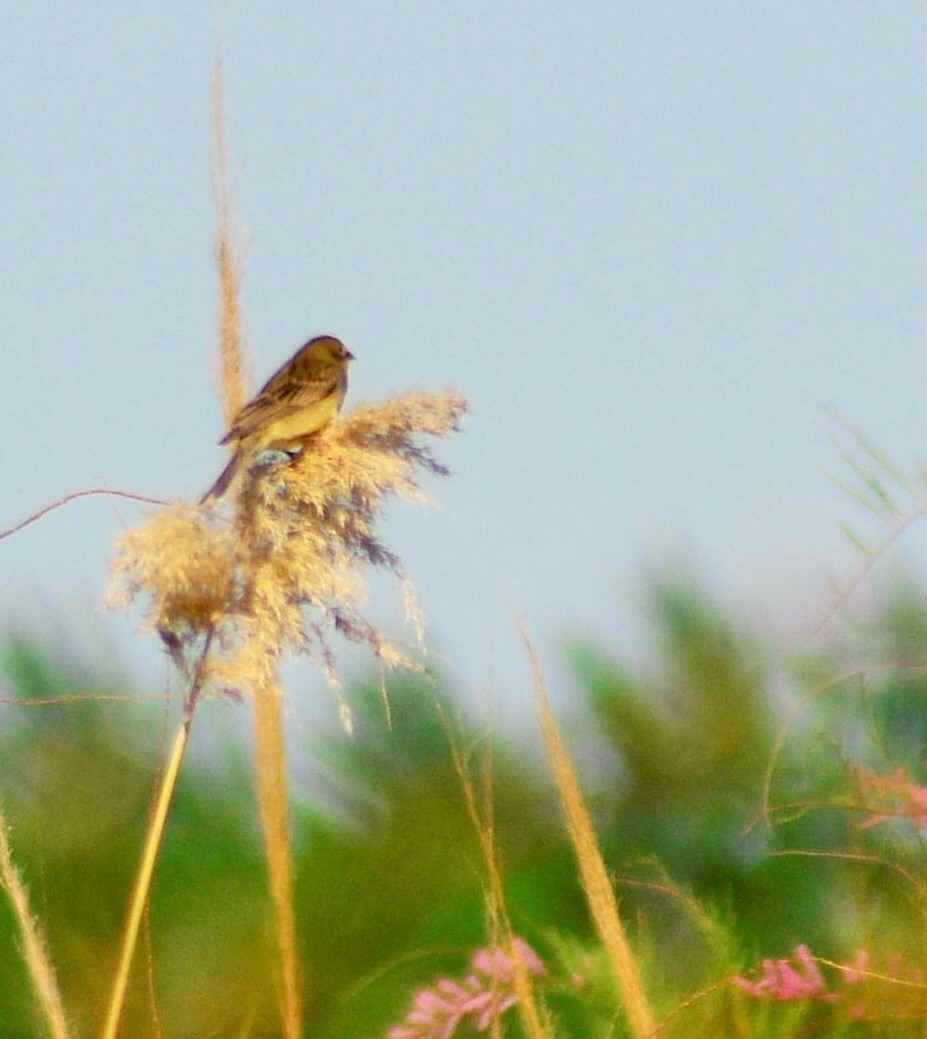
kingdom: Animalia
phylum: Chordata
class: Aves
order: Passeriformes
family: Thraupidae
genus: Sicalis
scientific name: Sicalis luteola
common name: Grassland yellow-finch
